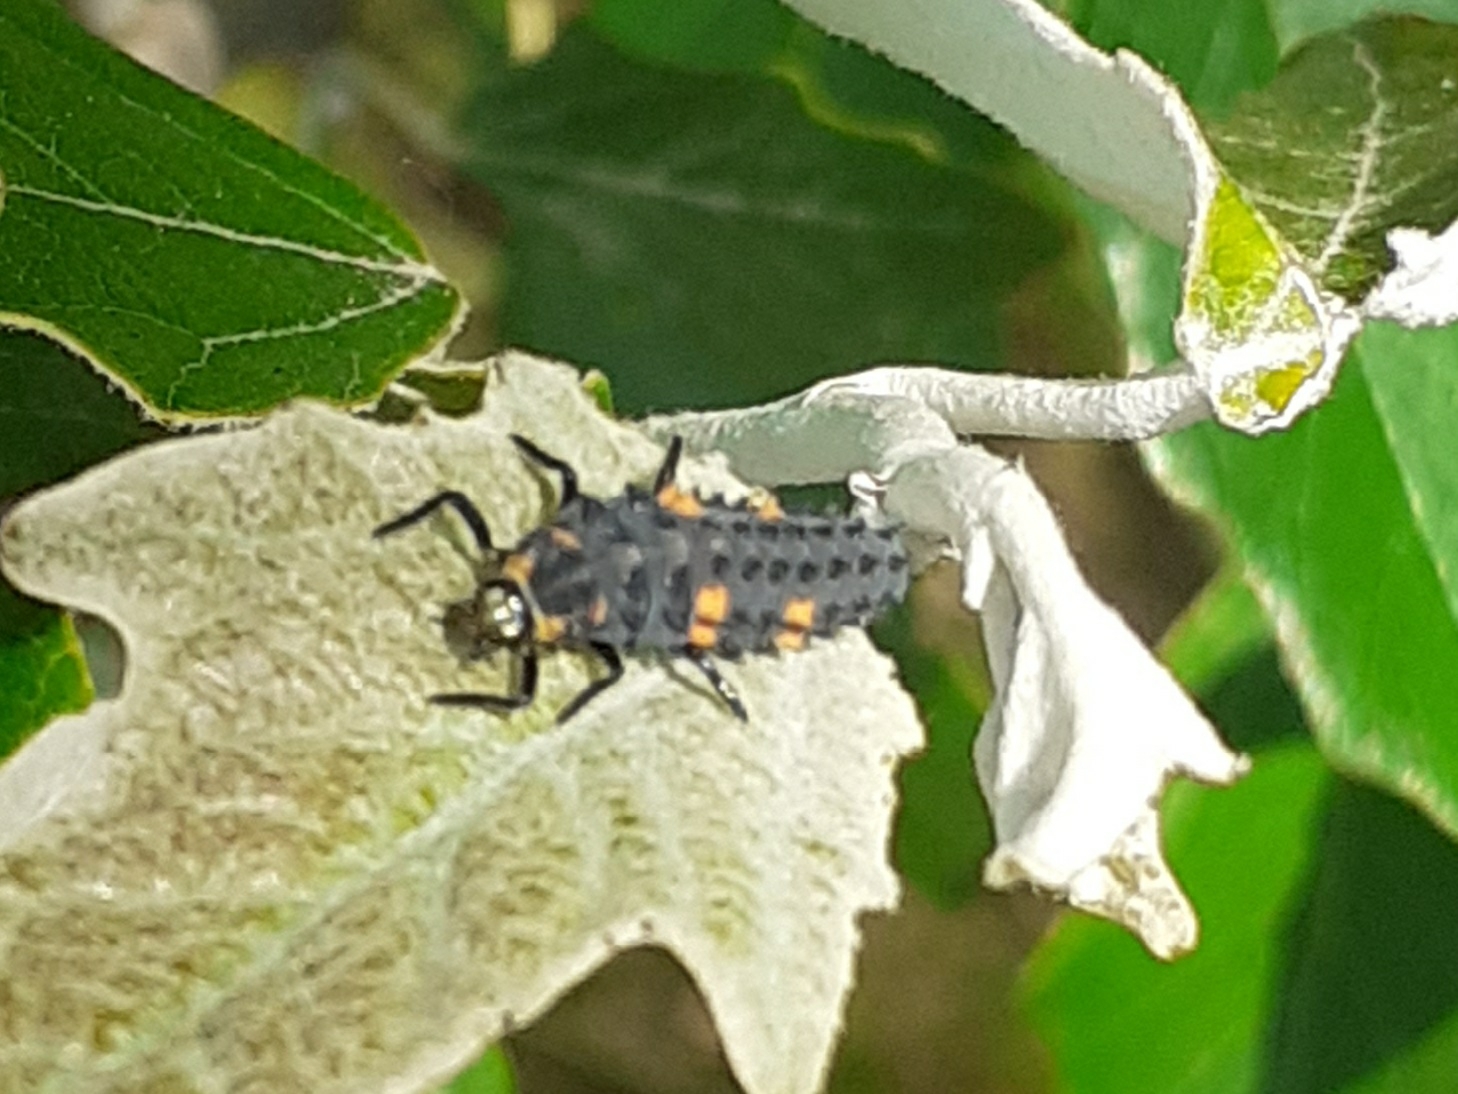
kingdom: Animalia
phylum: Arthropoda
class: Insecta
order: Coleoptera
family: Coccinellidae
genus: Coccinella
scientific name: Coccinella septempunctata
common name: Sevenspotted lady beetle
